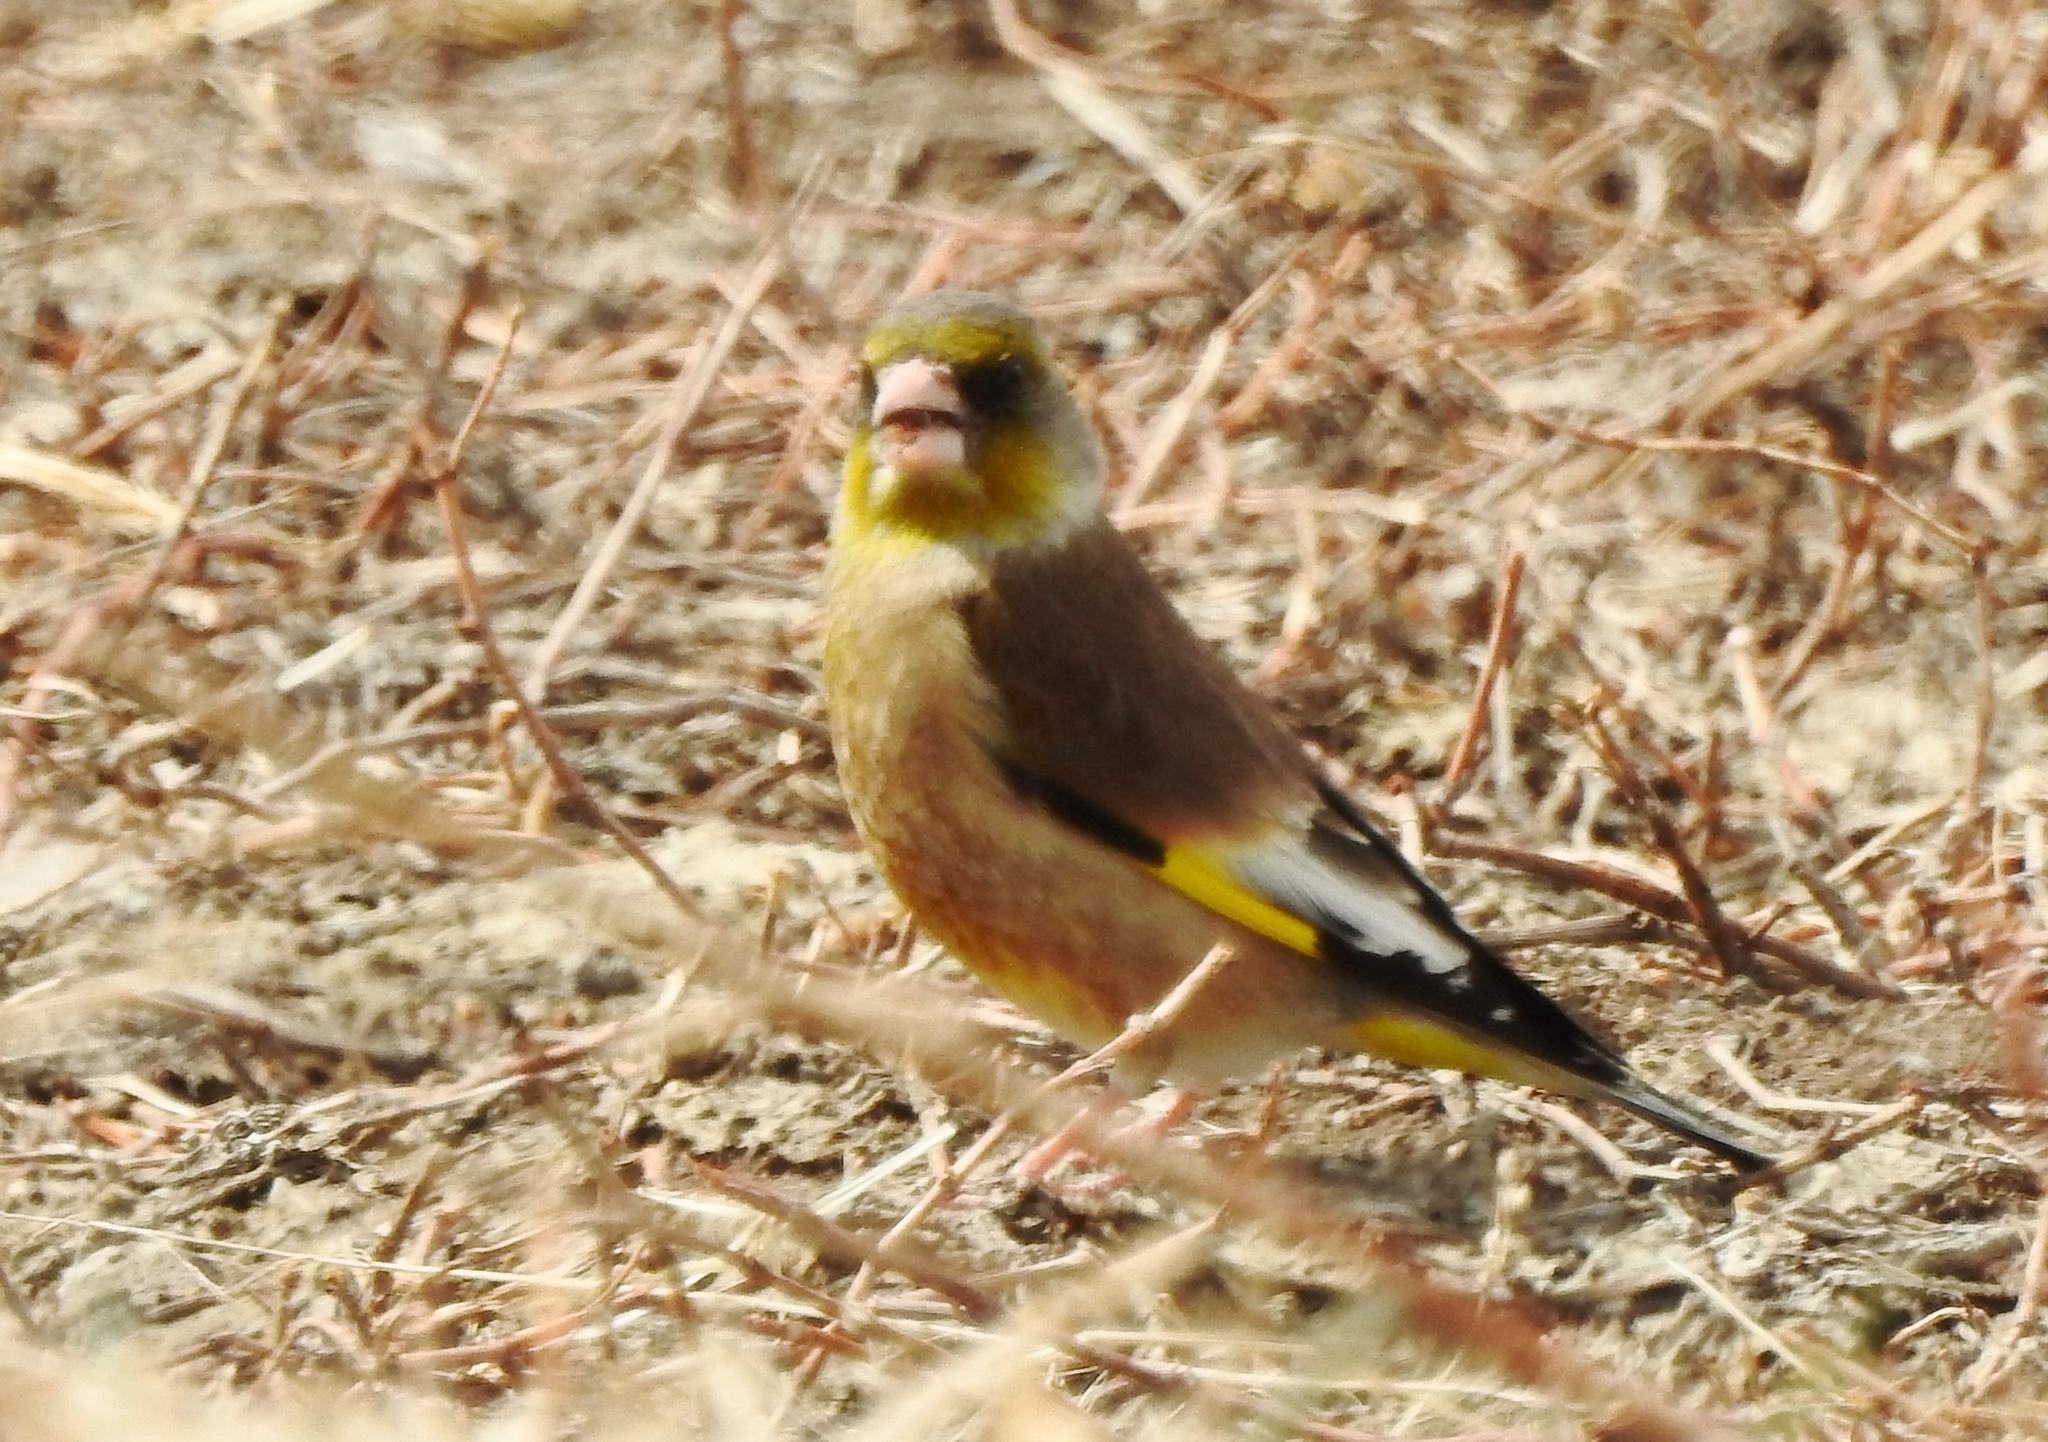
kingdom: Plantae
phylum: Tracheophyta
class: Liliopsida
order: Poales
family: Poaceae
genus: Chloris
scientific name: Chloris sinica
